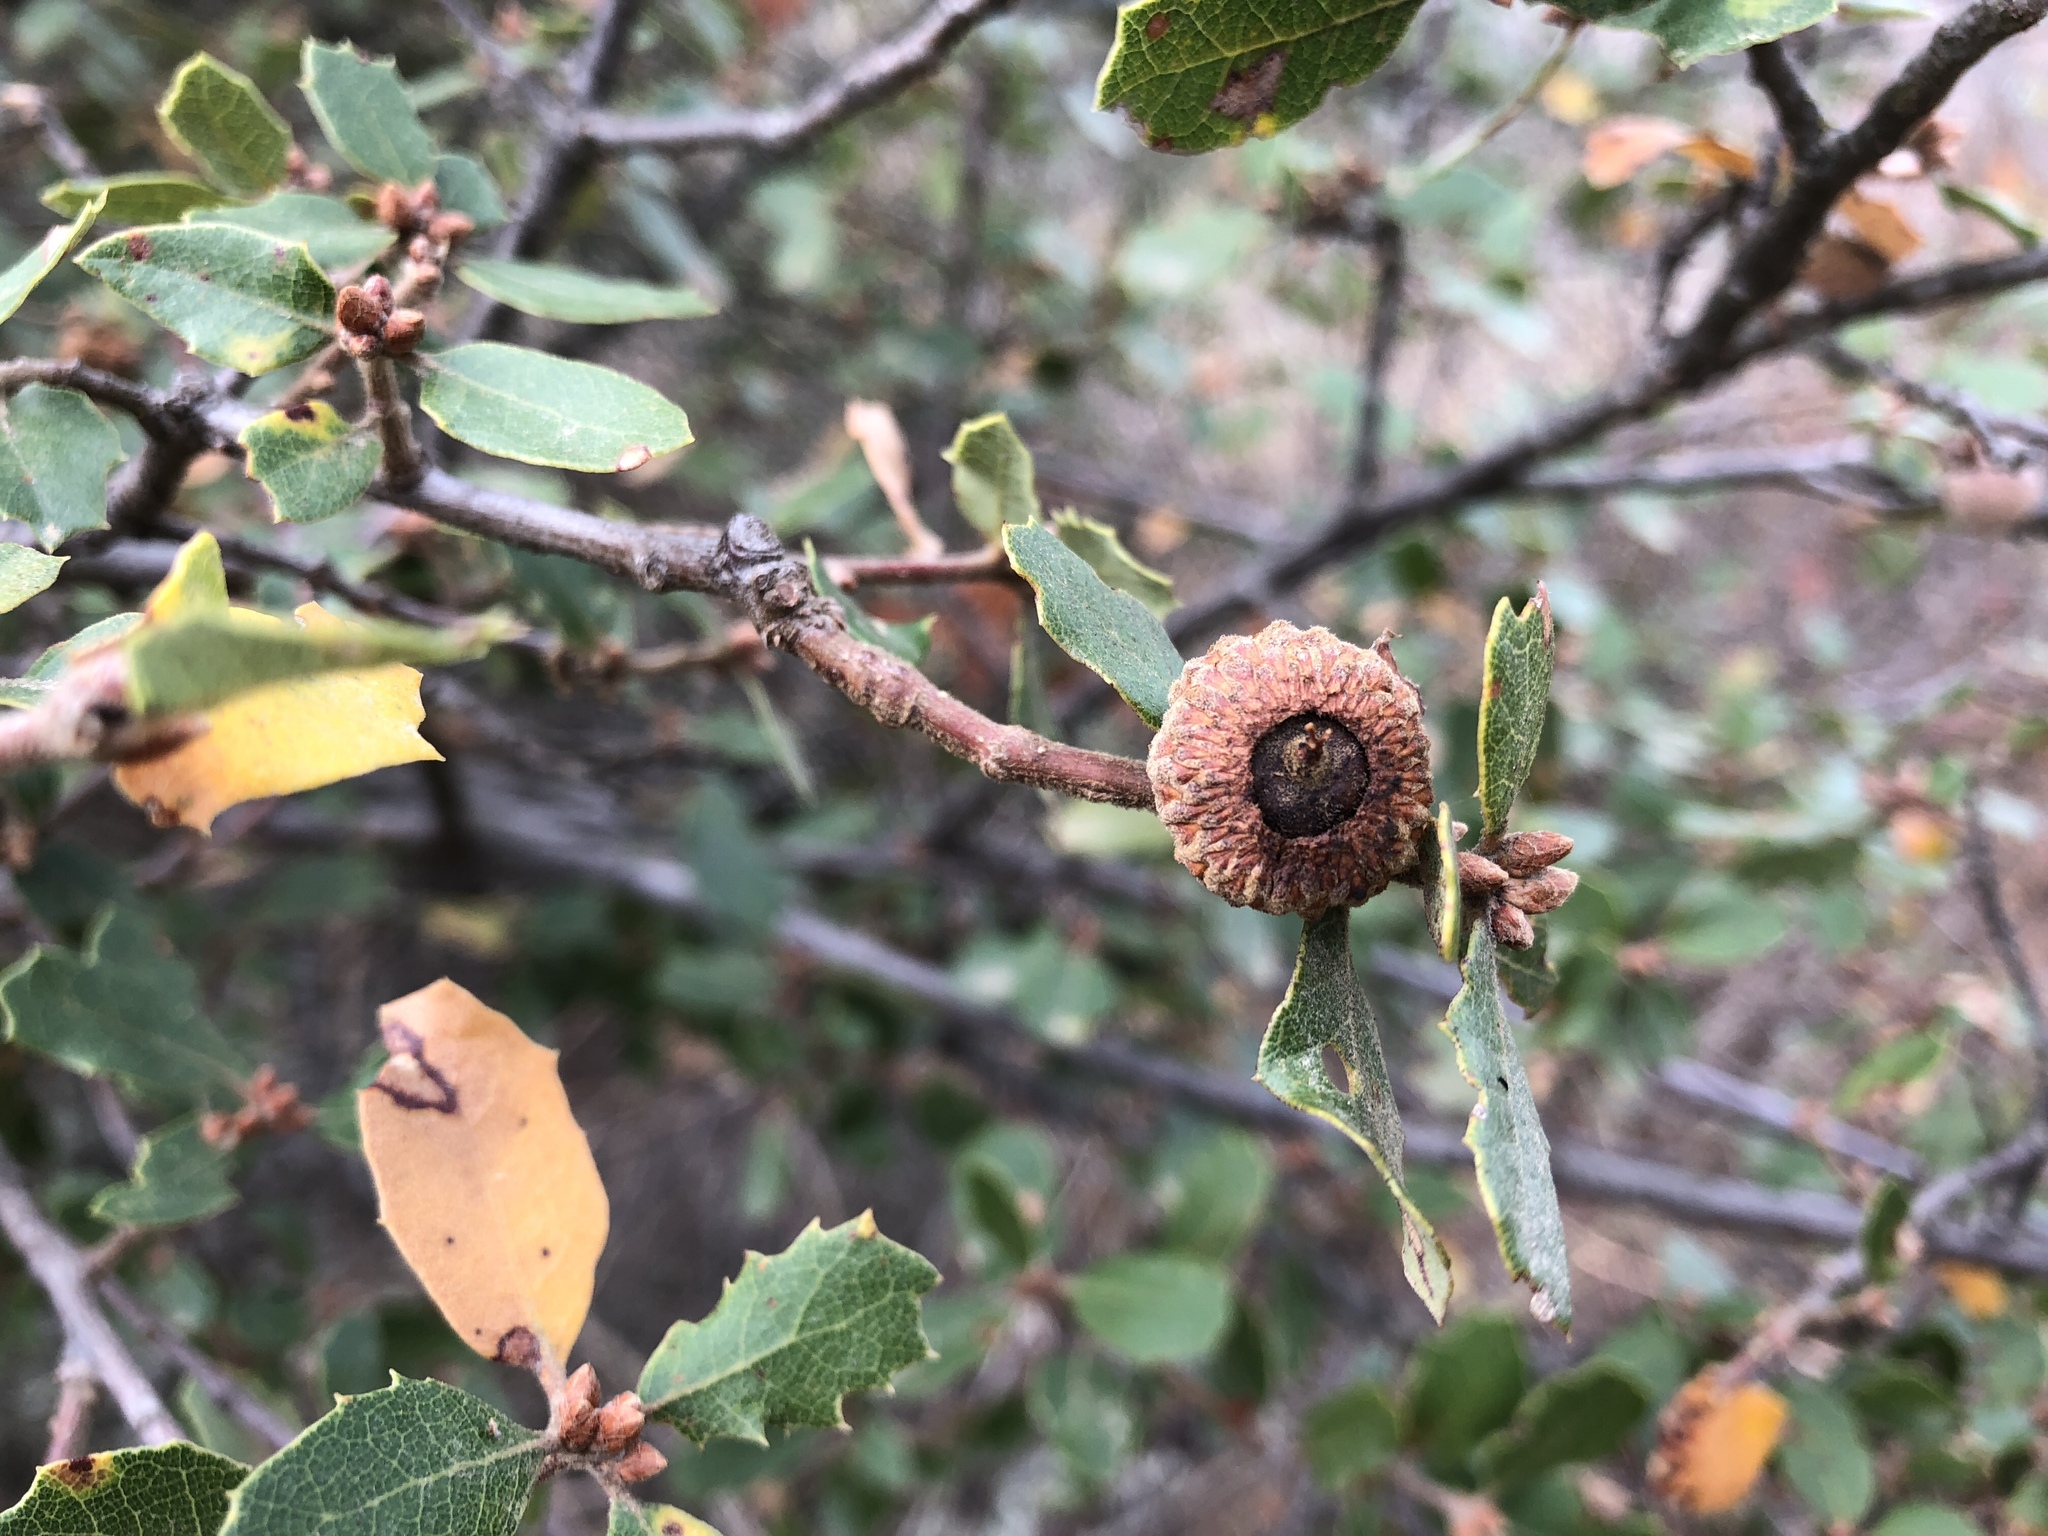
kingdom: Plantae
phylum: Tracheophyta
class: Magnoliopsida
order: Fagales
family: Fagaceae
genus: Quercus
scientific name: Quercus berberidifolia
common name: California scrub oak
